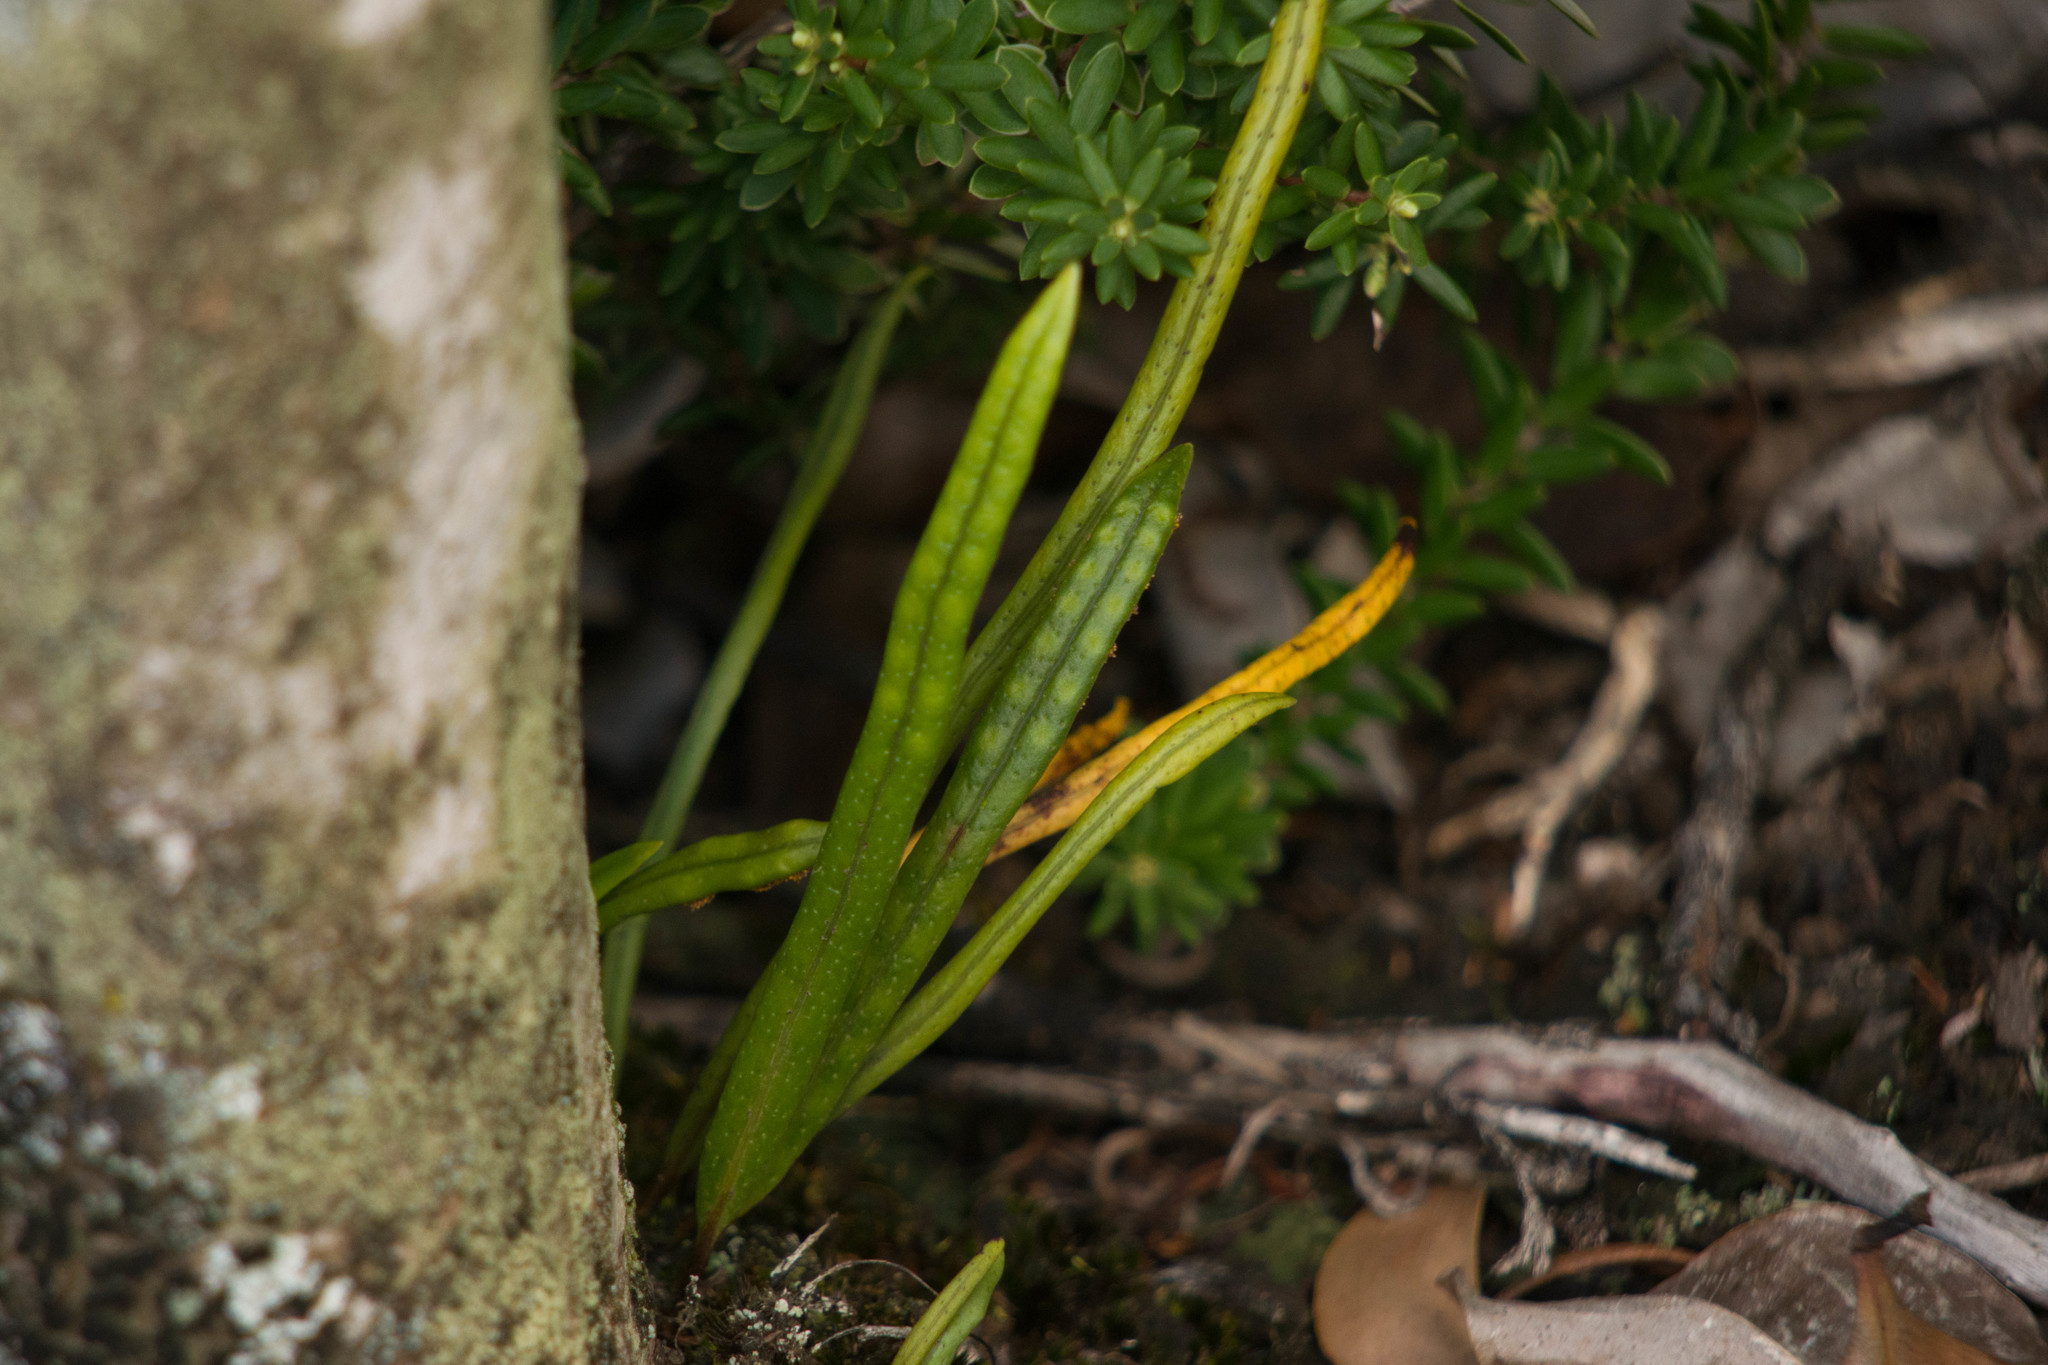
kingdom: Plantae
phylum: Tracheophyta
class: Polypodiopsida
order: Polypodiales
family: Polypodiaceae
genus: Lepisorus
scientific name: Lepisorus thunbergianus
